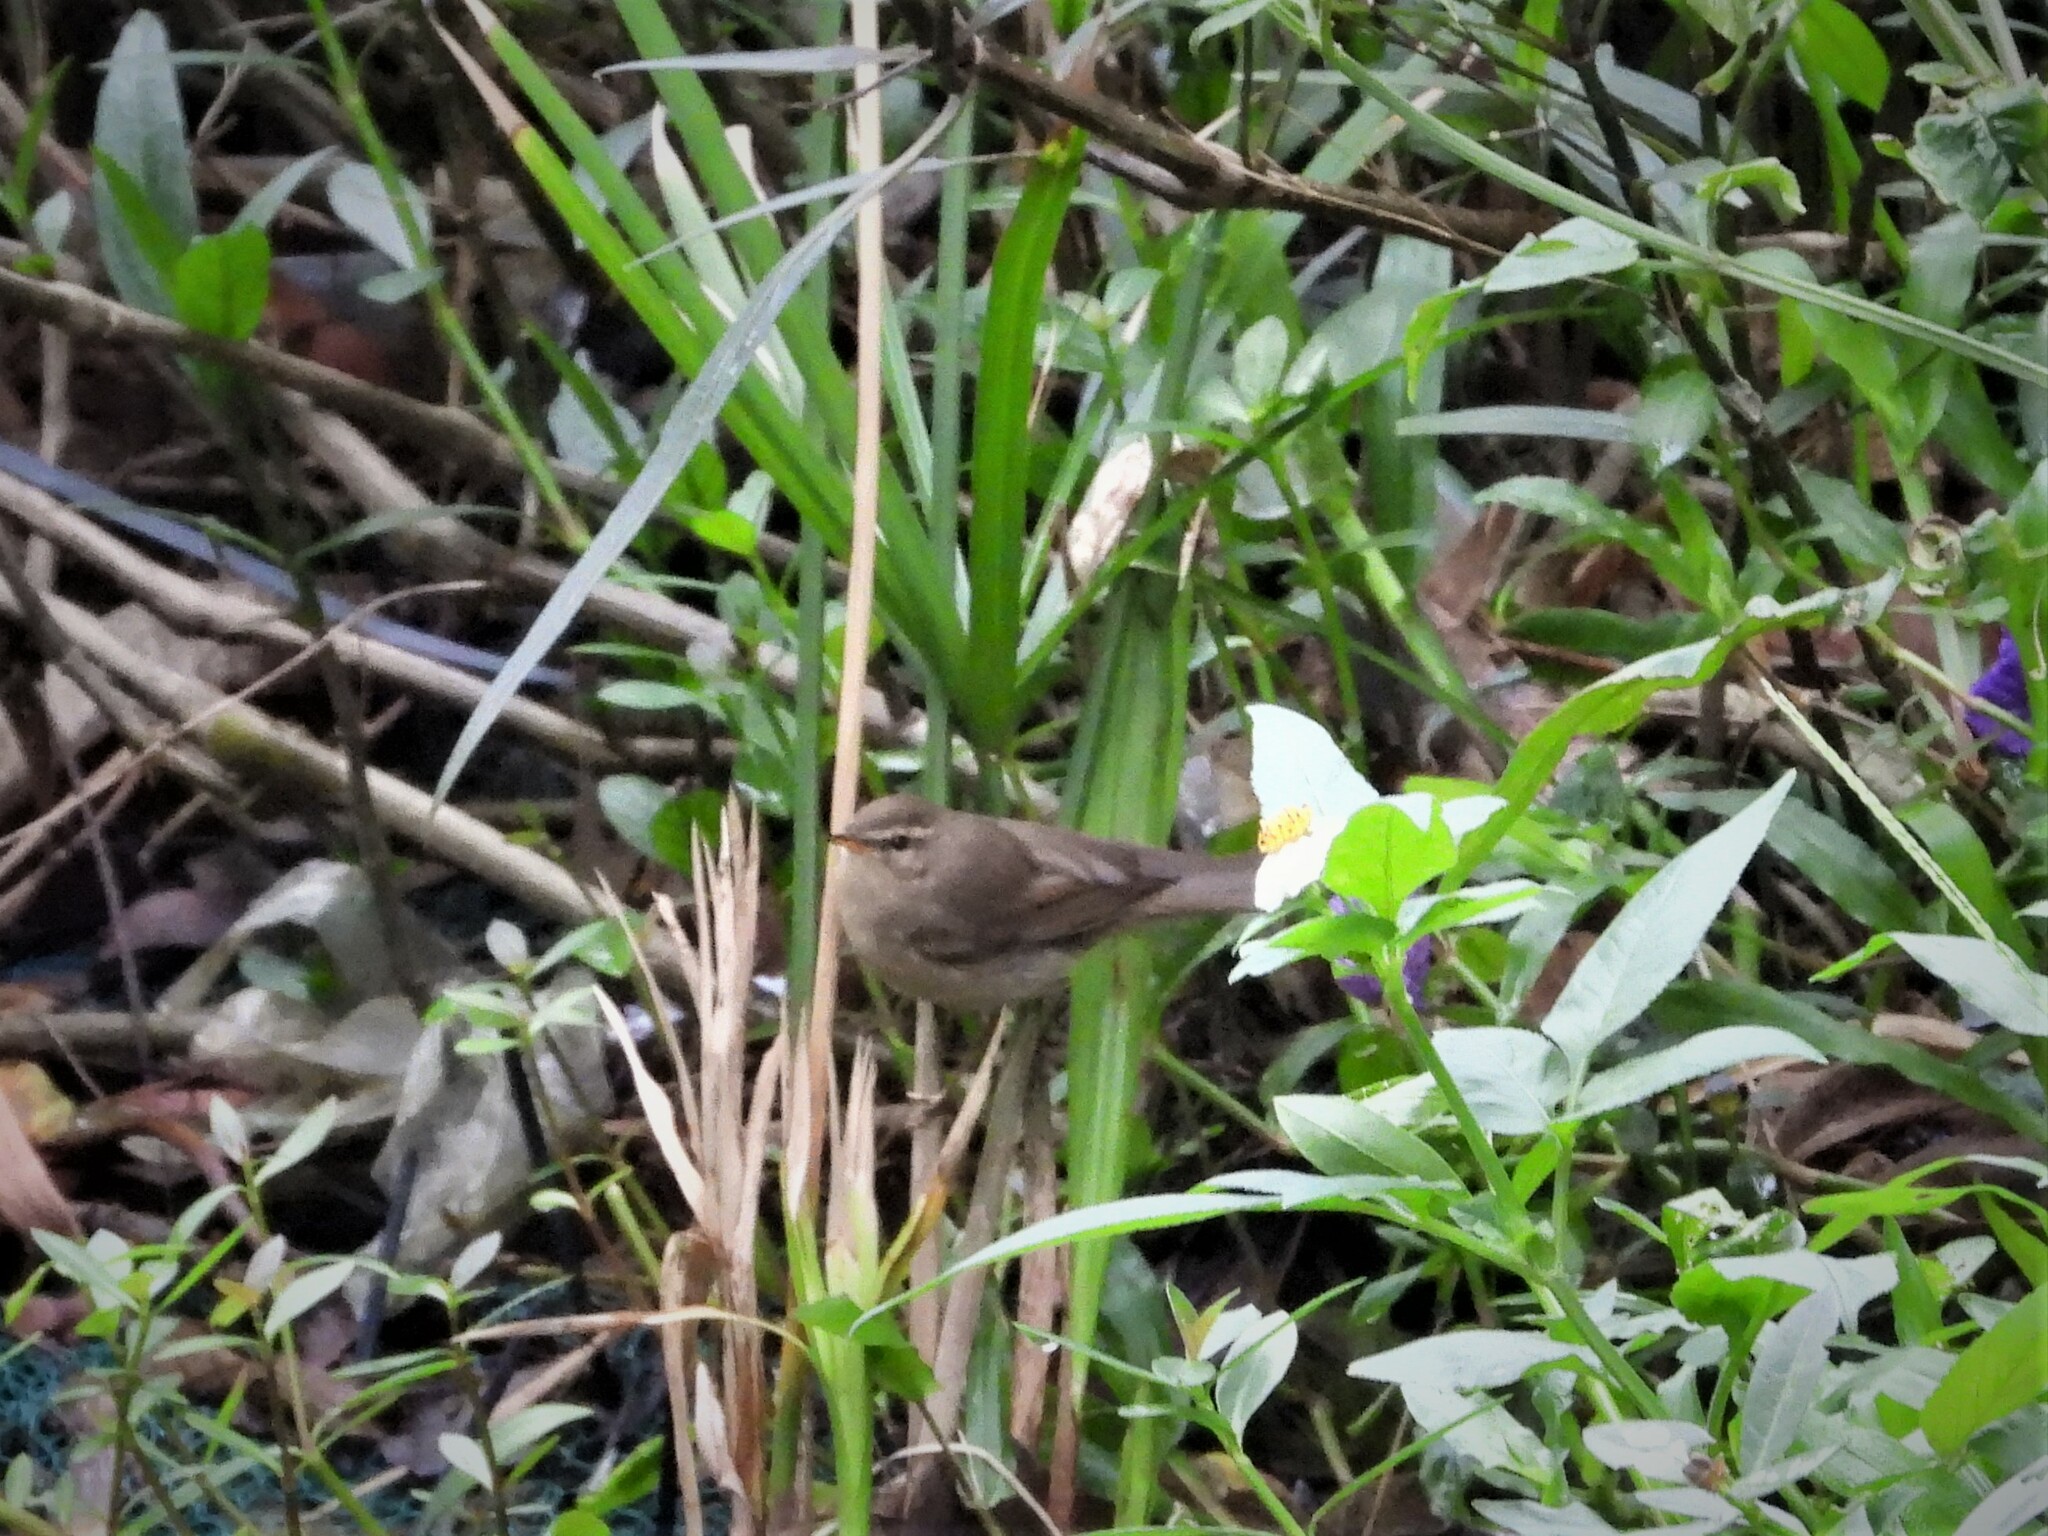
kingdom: Animalia
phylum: Chordata
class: Aves
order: Passeriformes
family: Phylloscopidae
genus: Phylloscopus
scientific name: Phylloscopus fuscatus
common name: Dusky warbler
